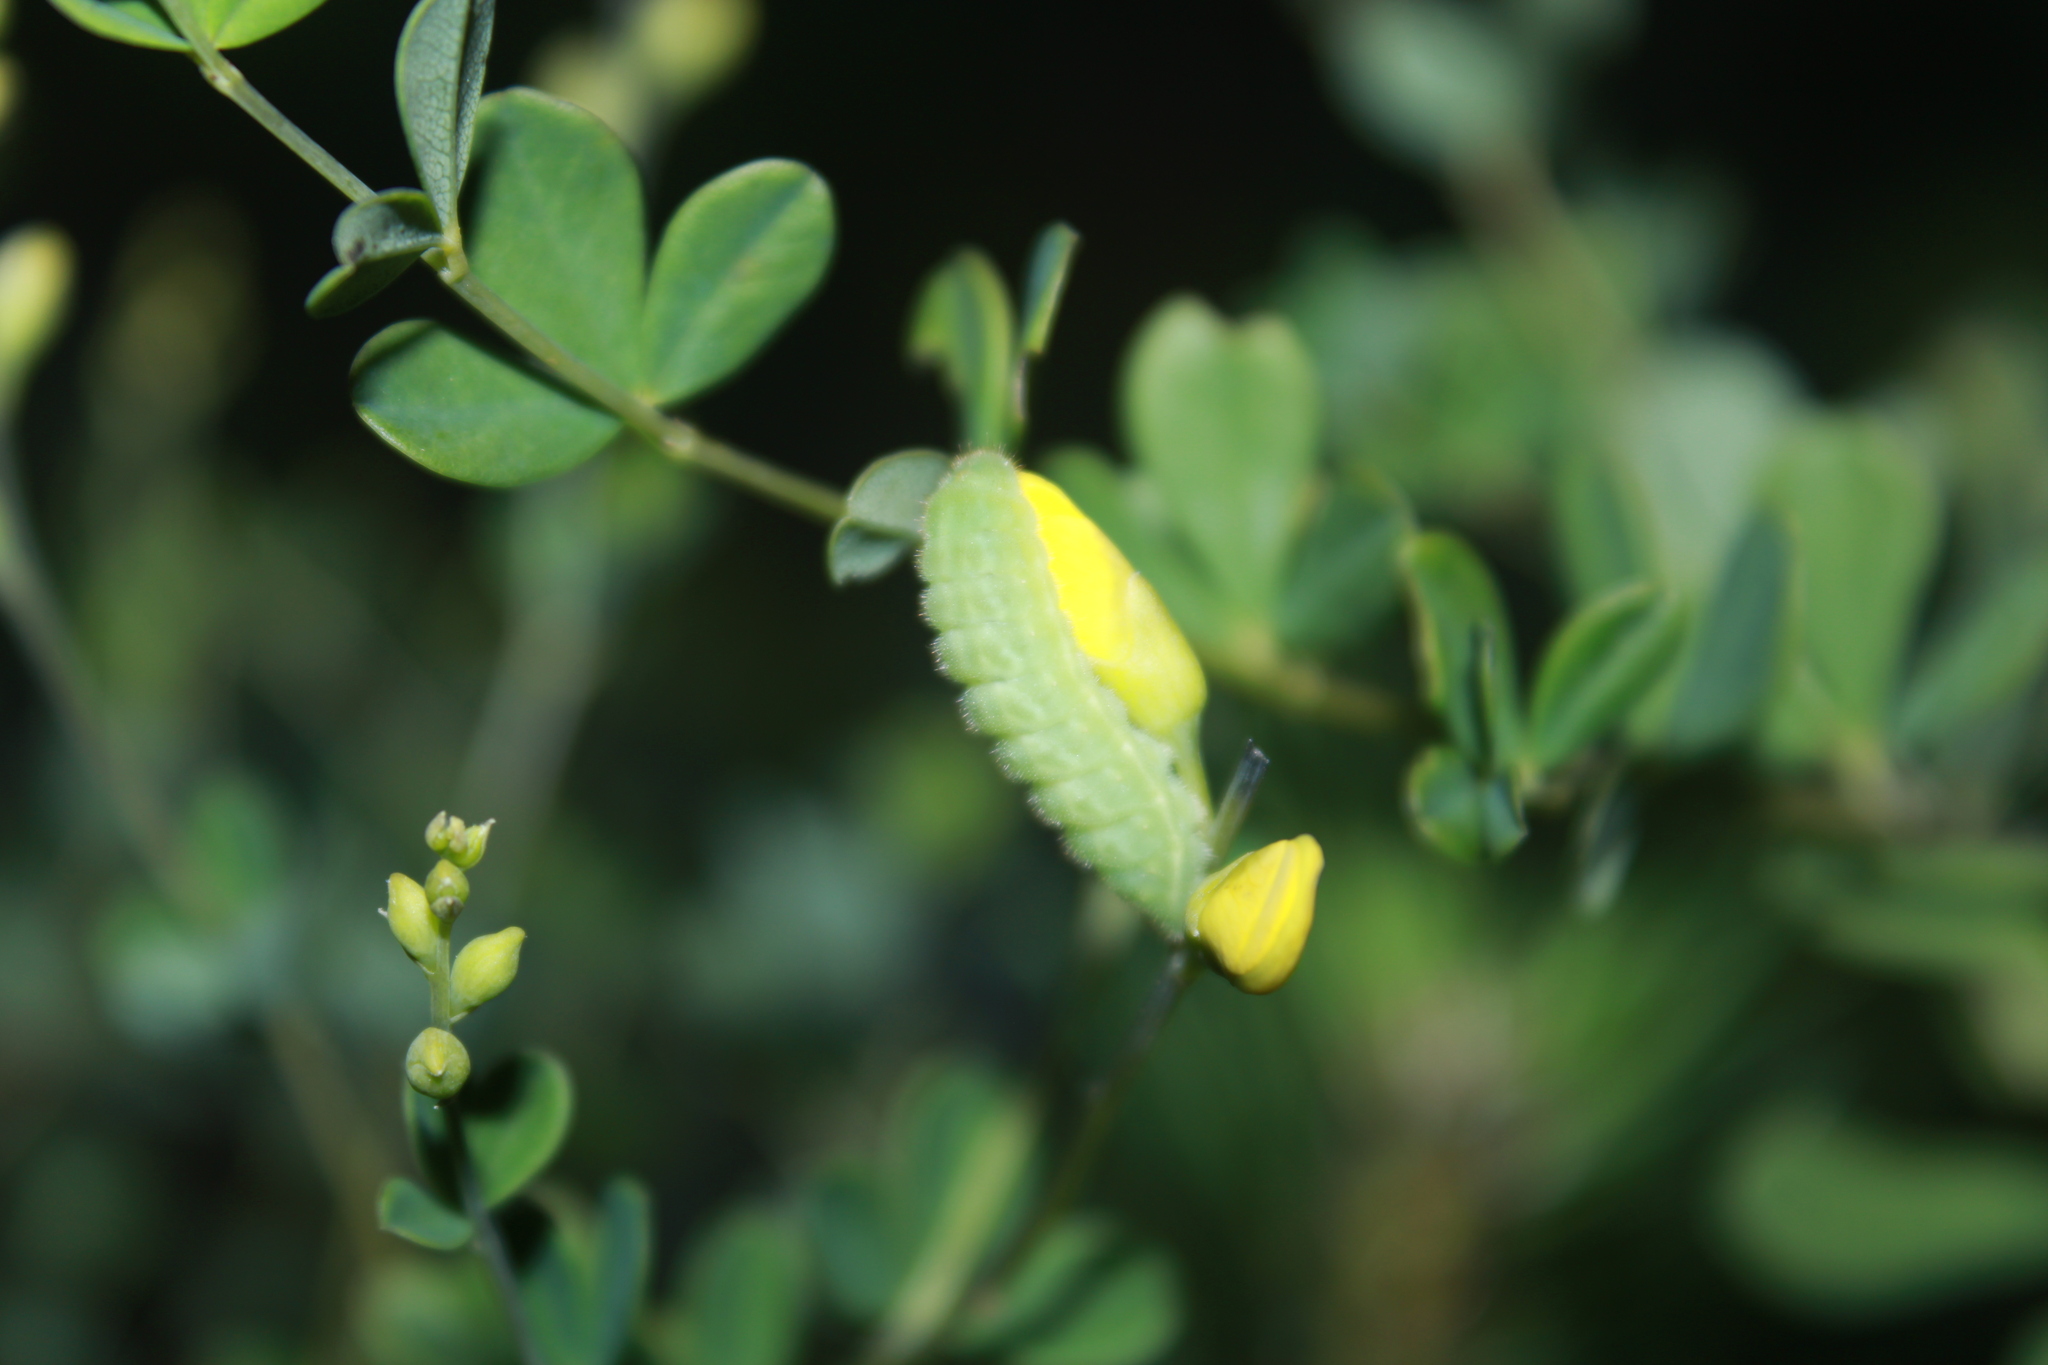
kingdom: Animalia
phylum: Arthropoda
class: Insecta
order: Lepidoptera
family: Lycaenidae
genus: Thecla
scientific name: Thecla irus
